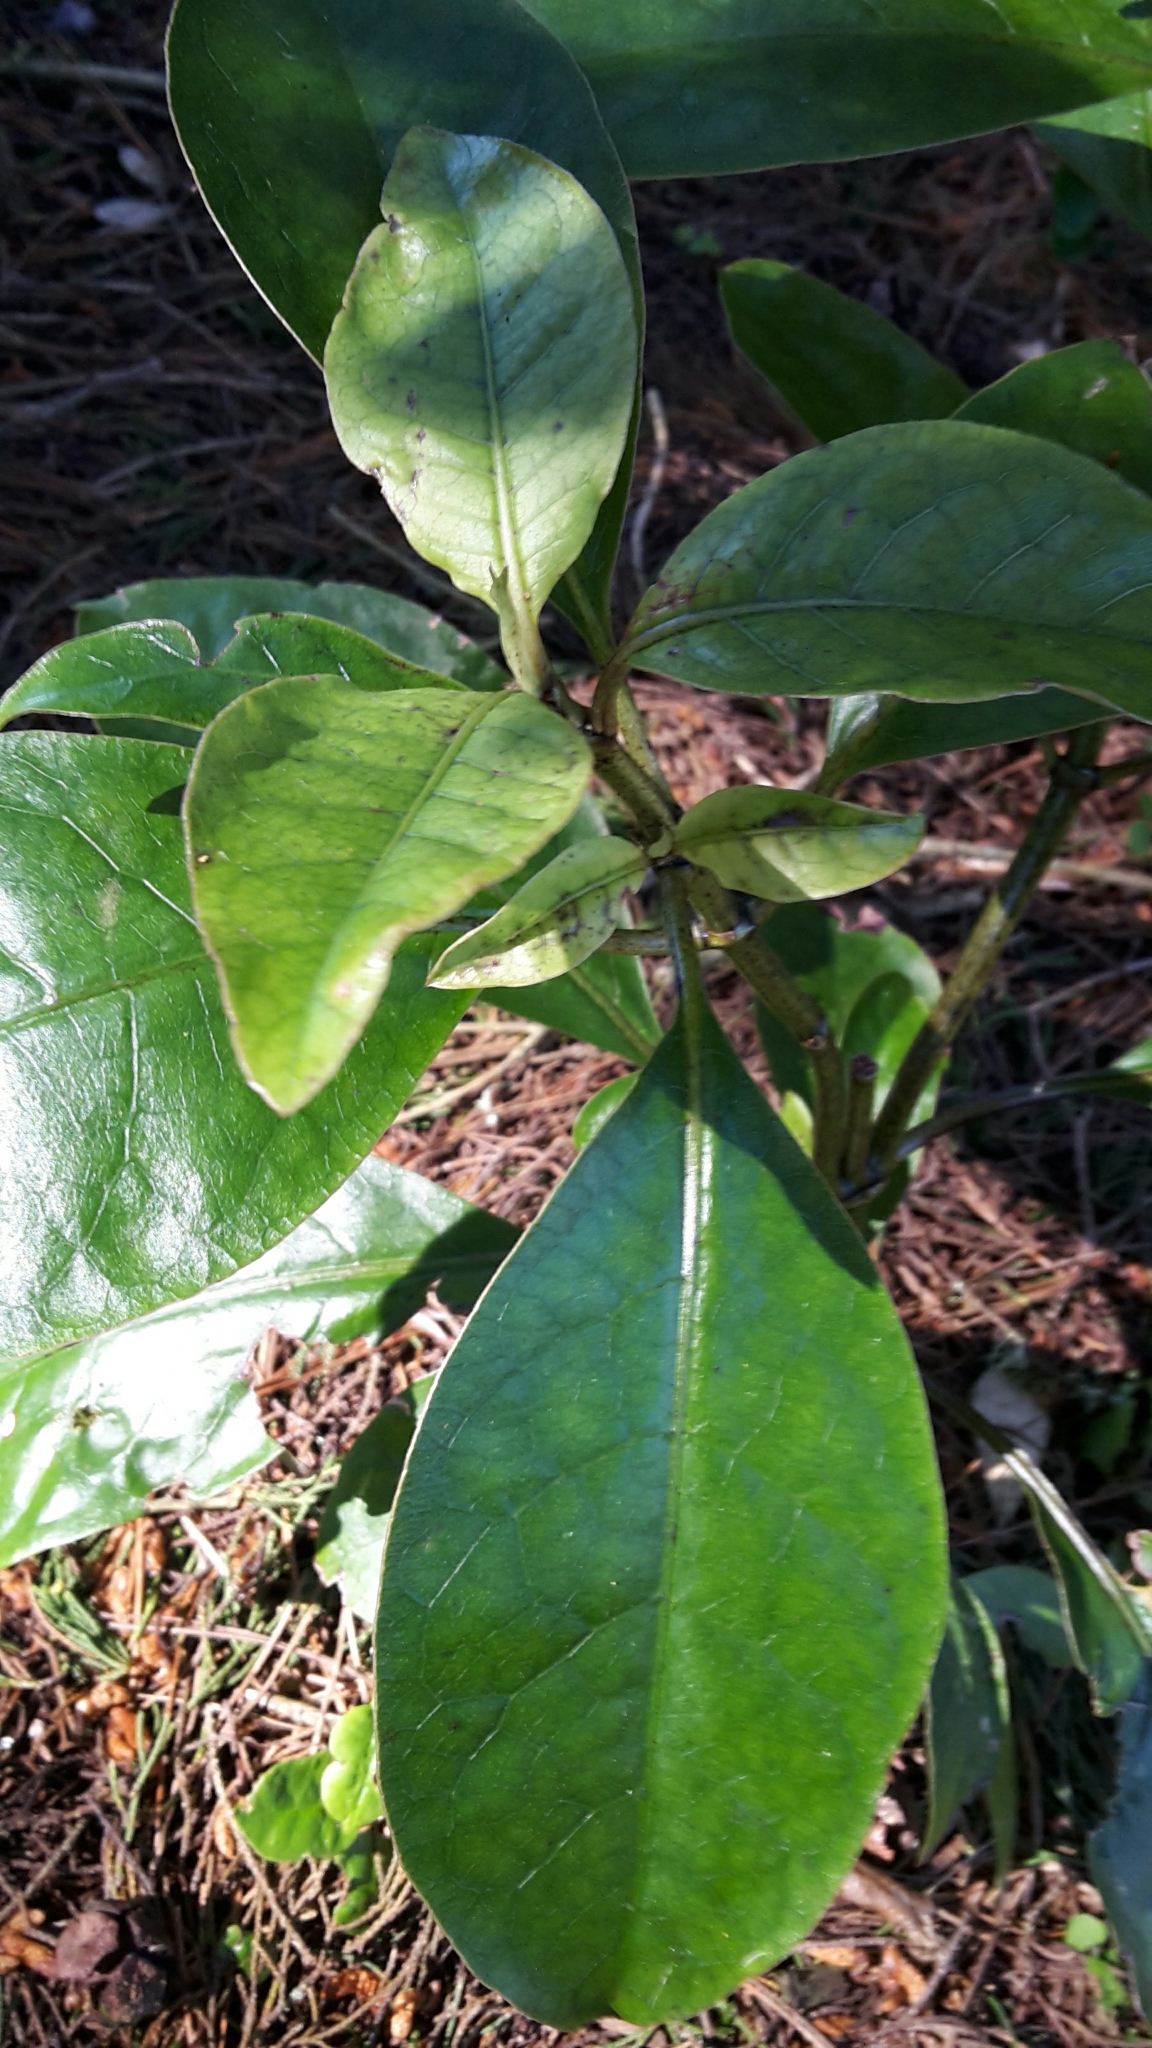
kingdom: Plantae
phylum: Tracheophyta
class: Magnoliopsida
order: Gentianales
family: Rubiaceae
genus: Coprosma
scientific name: Coprosma autumnalis
